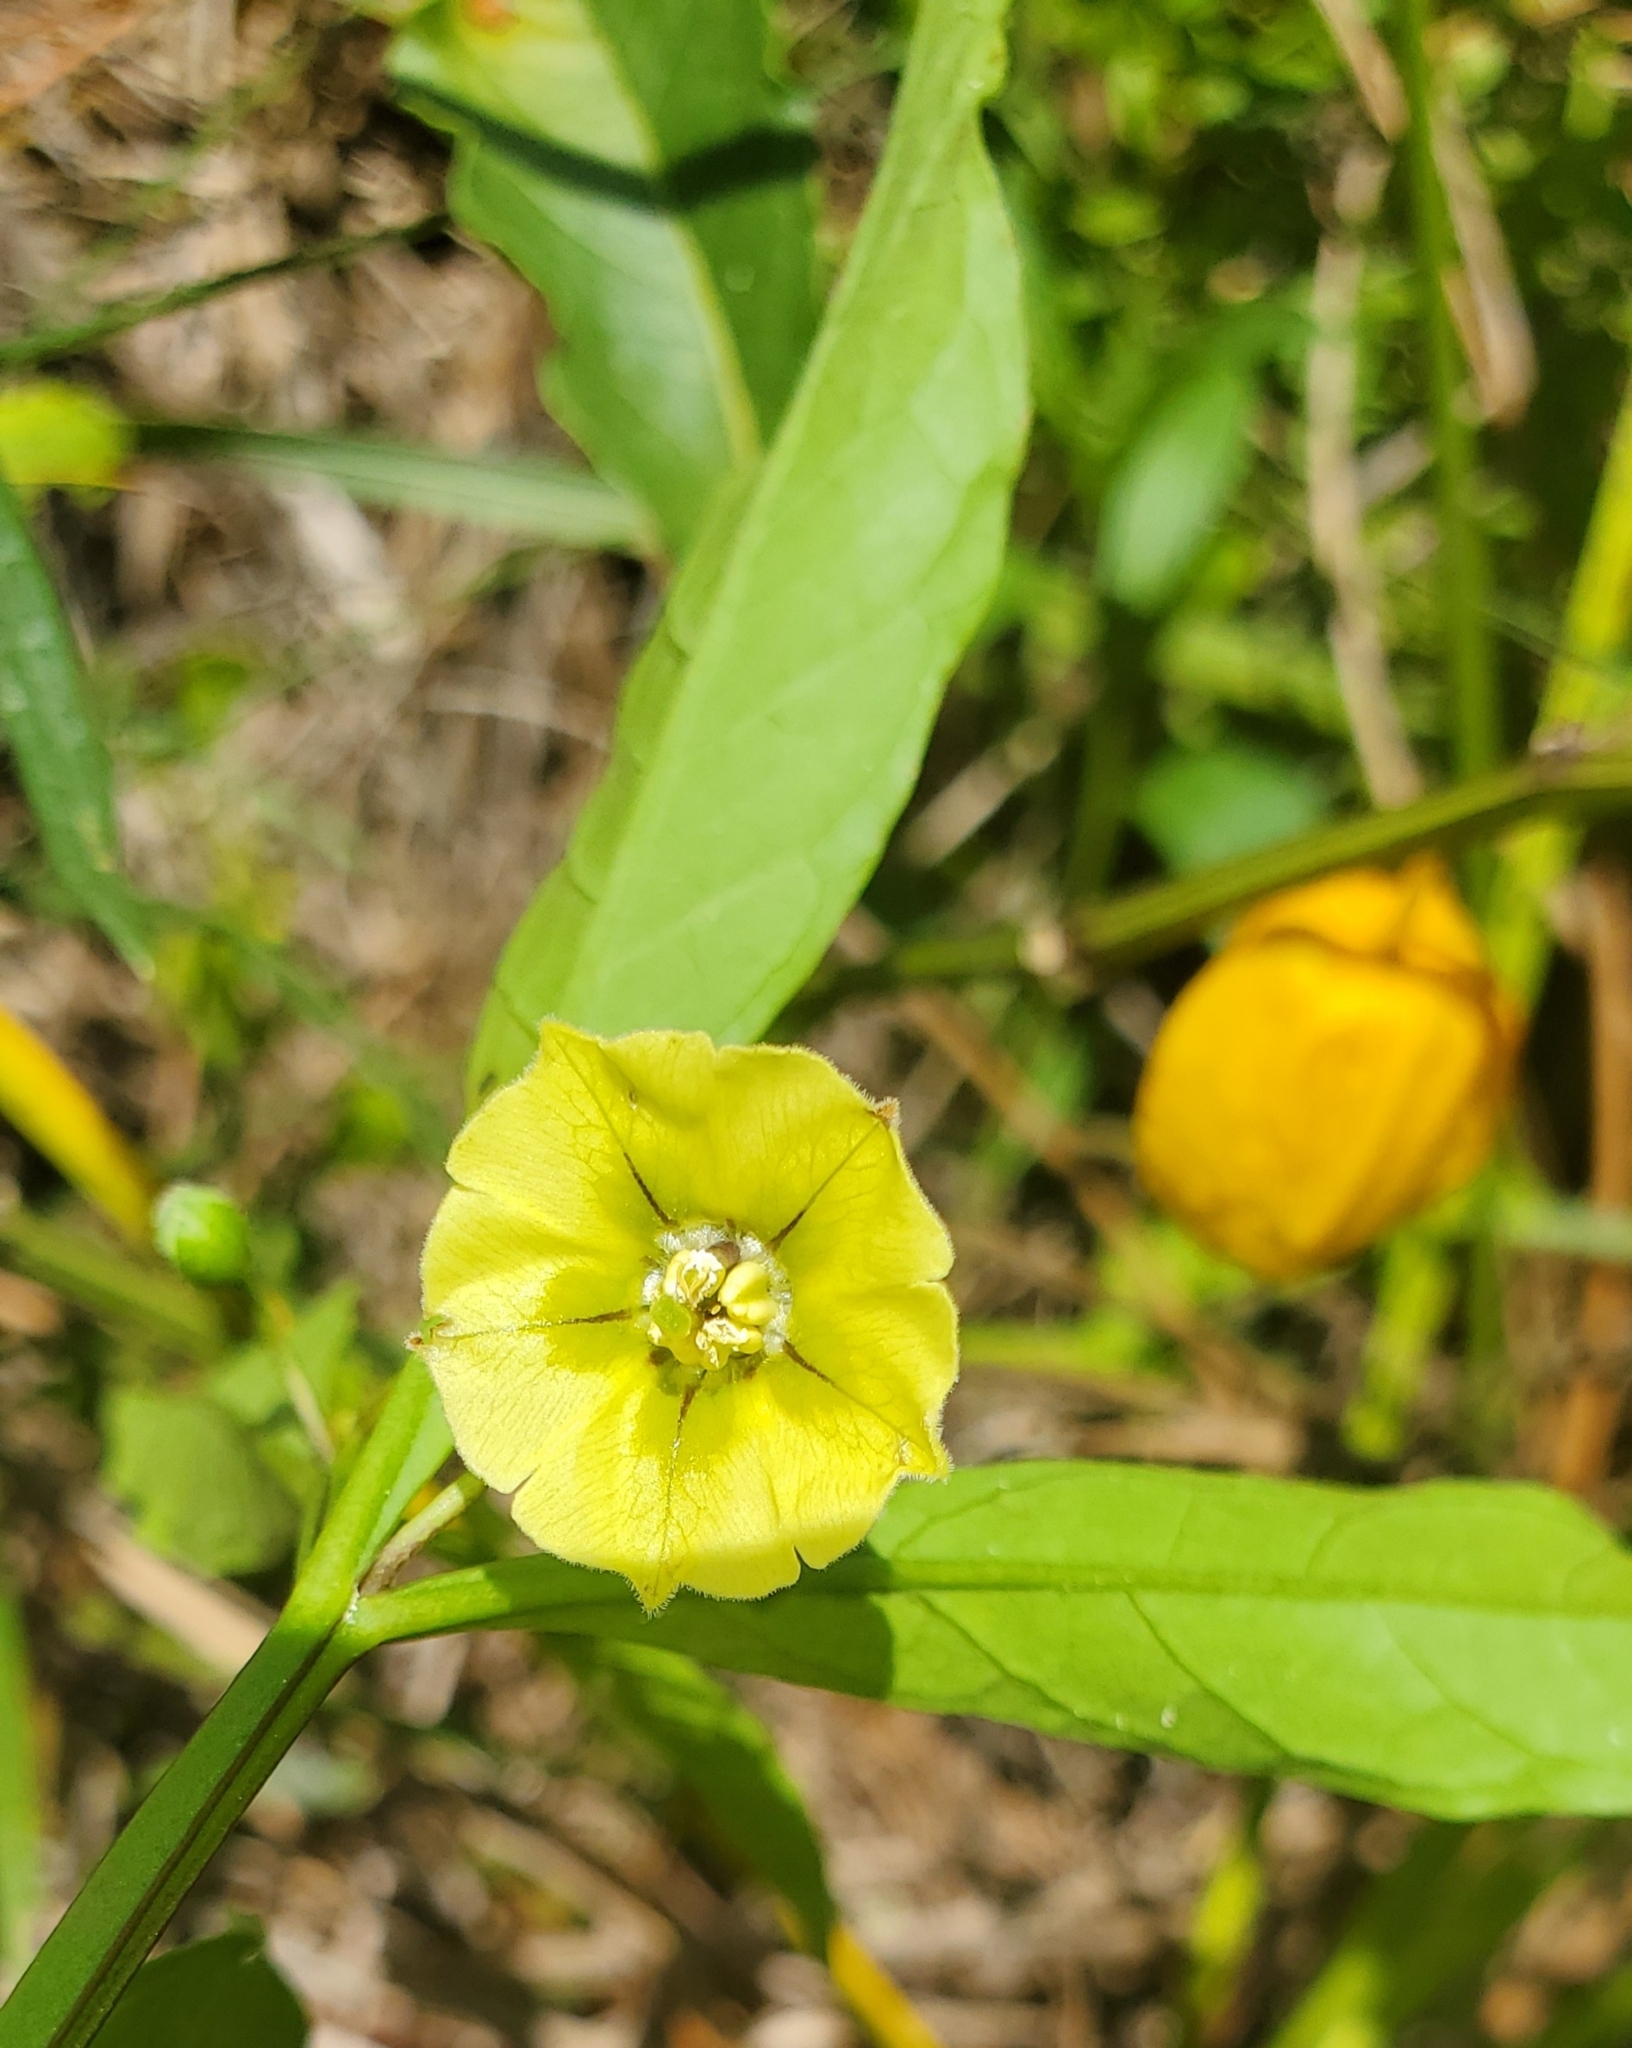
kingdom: Plantae
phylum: Tracheophyta
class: Magnoliopsida
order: Solanales
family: Solanaceae
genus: Physalis
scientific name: Physalis angustifolia
